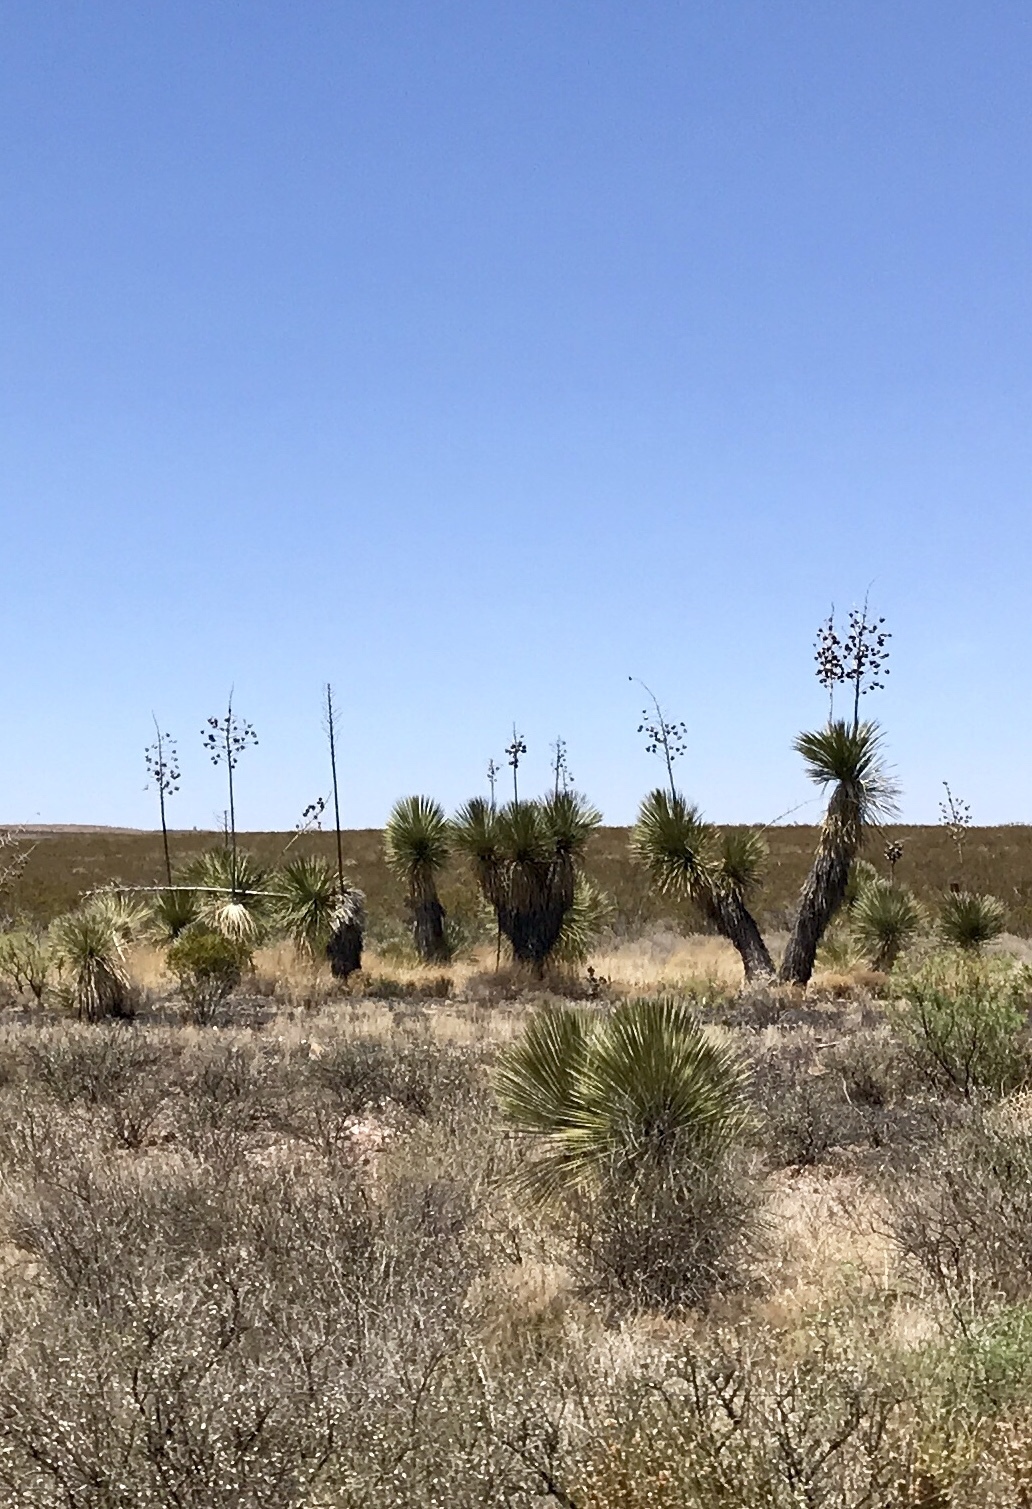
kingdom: Plantae
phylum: Tracheophyta
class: Liliopsida
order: Asparagales
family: Asparagaceae
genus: Yucca
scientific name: Yucca elata
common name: Palmella
